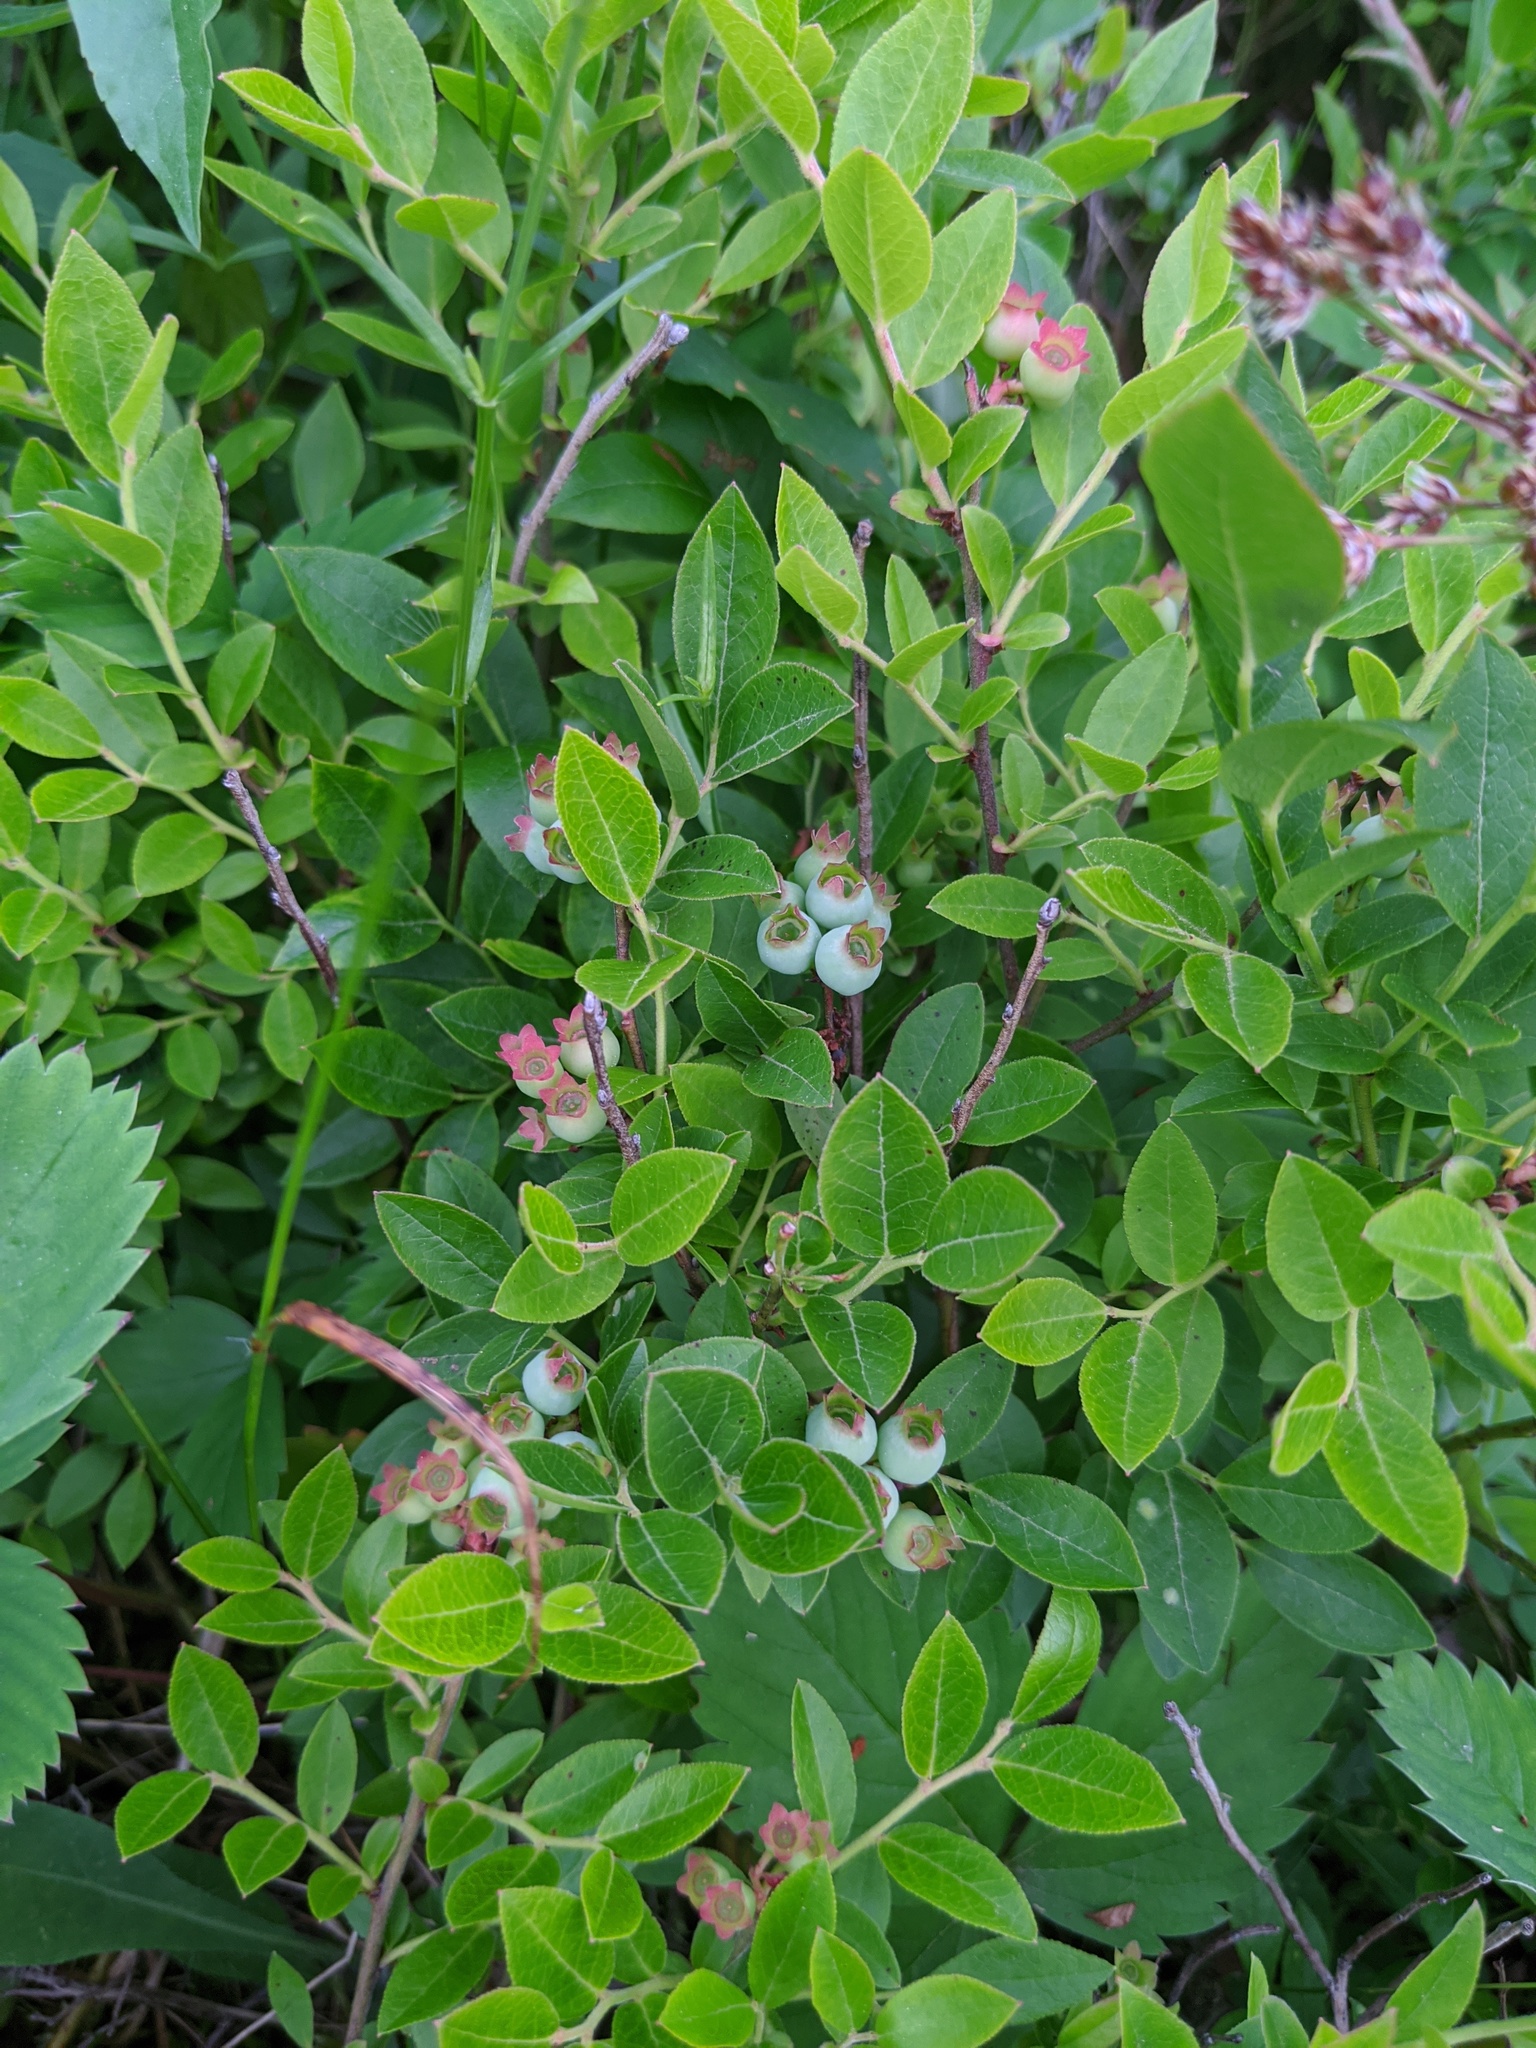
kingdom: Plantae
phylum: Tracheophyta
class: Magnoliopsida
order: Ericales
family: Ericaceae
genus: Vaccinium
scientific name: Vaccinium angustifolium
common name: Early lowbush blueberry
